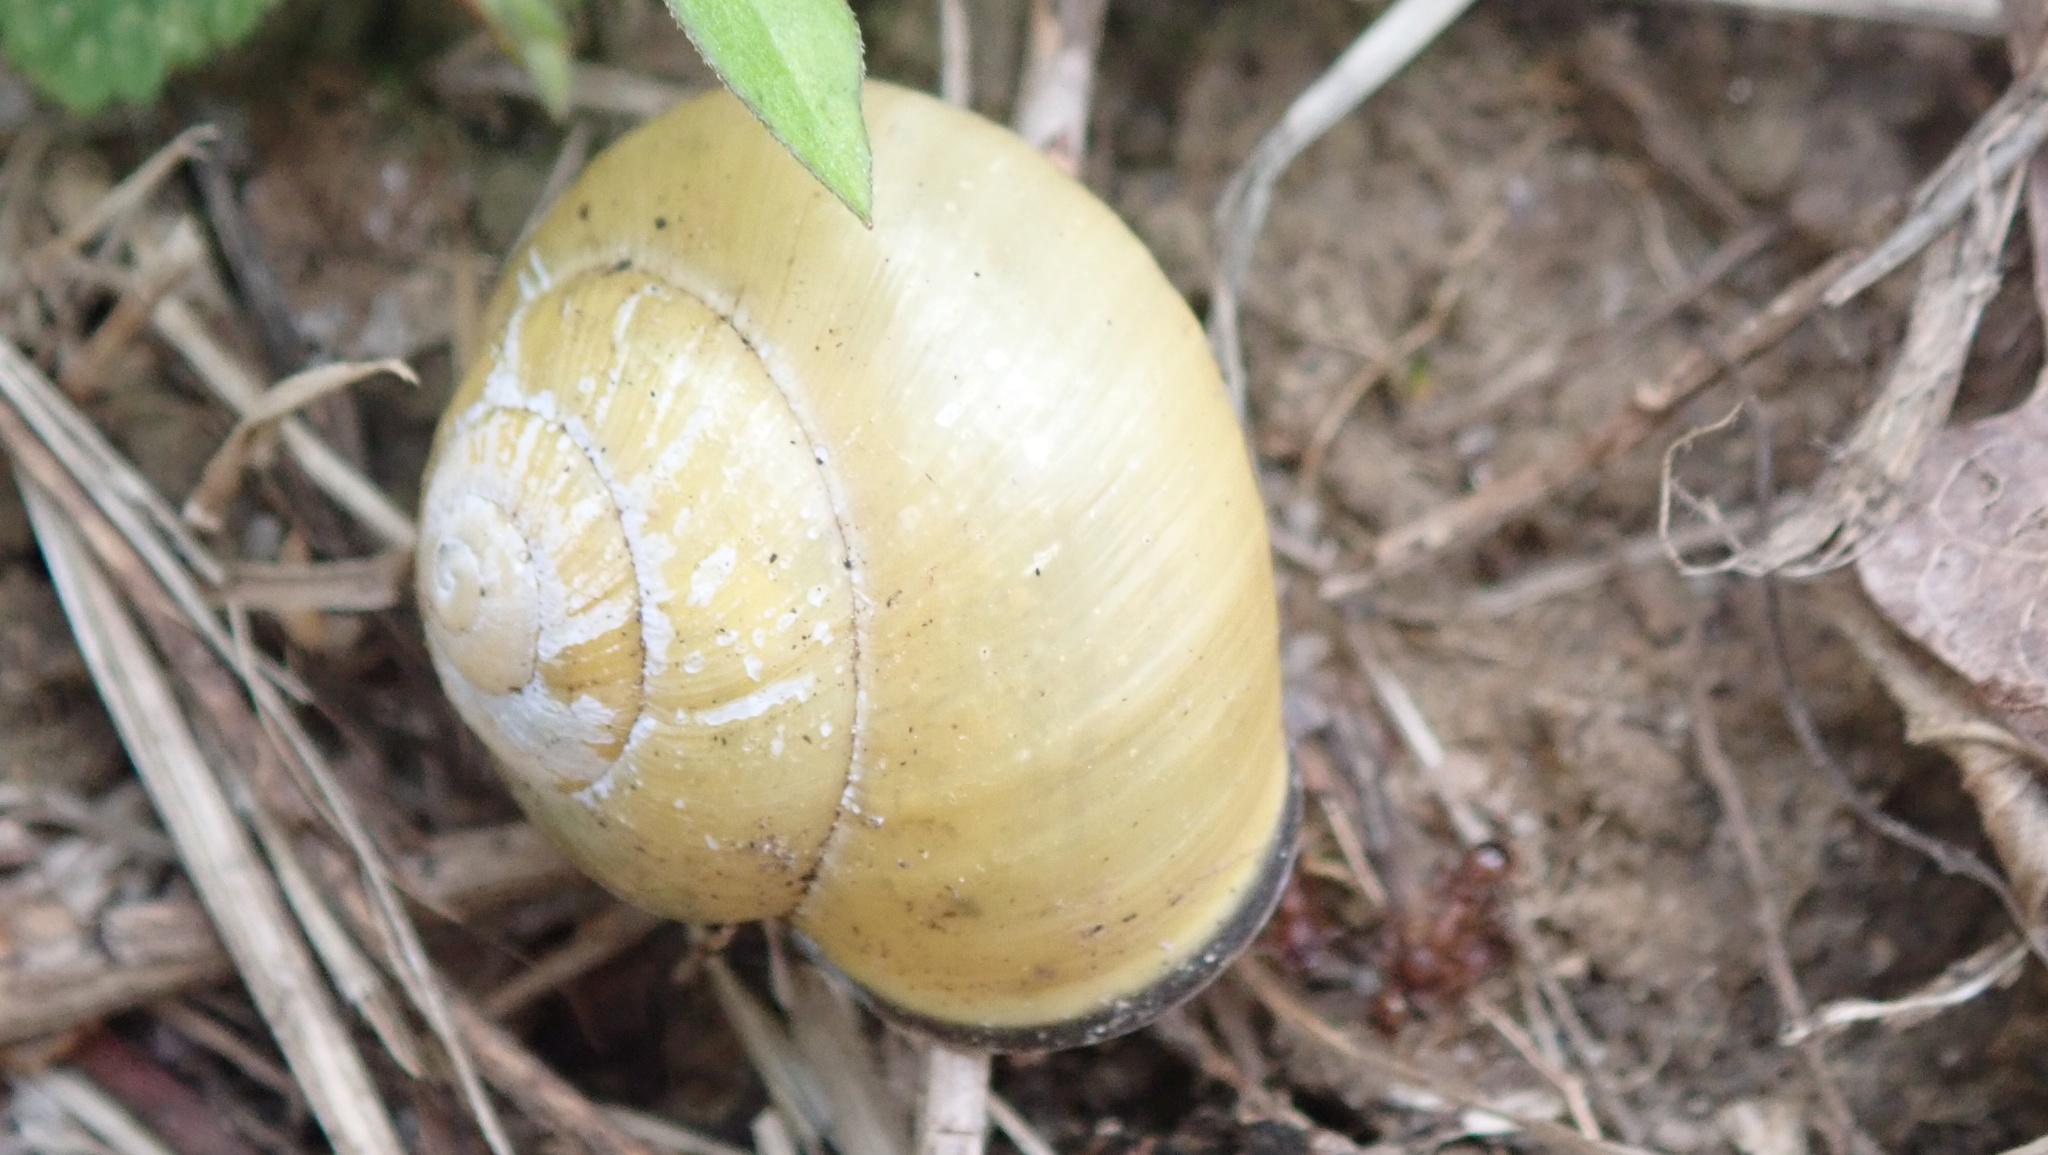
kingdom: Animalia
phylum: Mollusca
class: Gastropoda
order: Stylommatophora
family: Helicidae
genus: Cepaea
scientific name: Cepaea nemoralis
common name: Grovesnail
